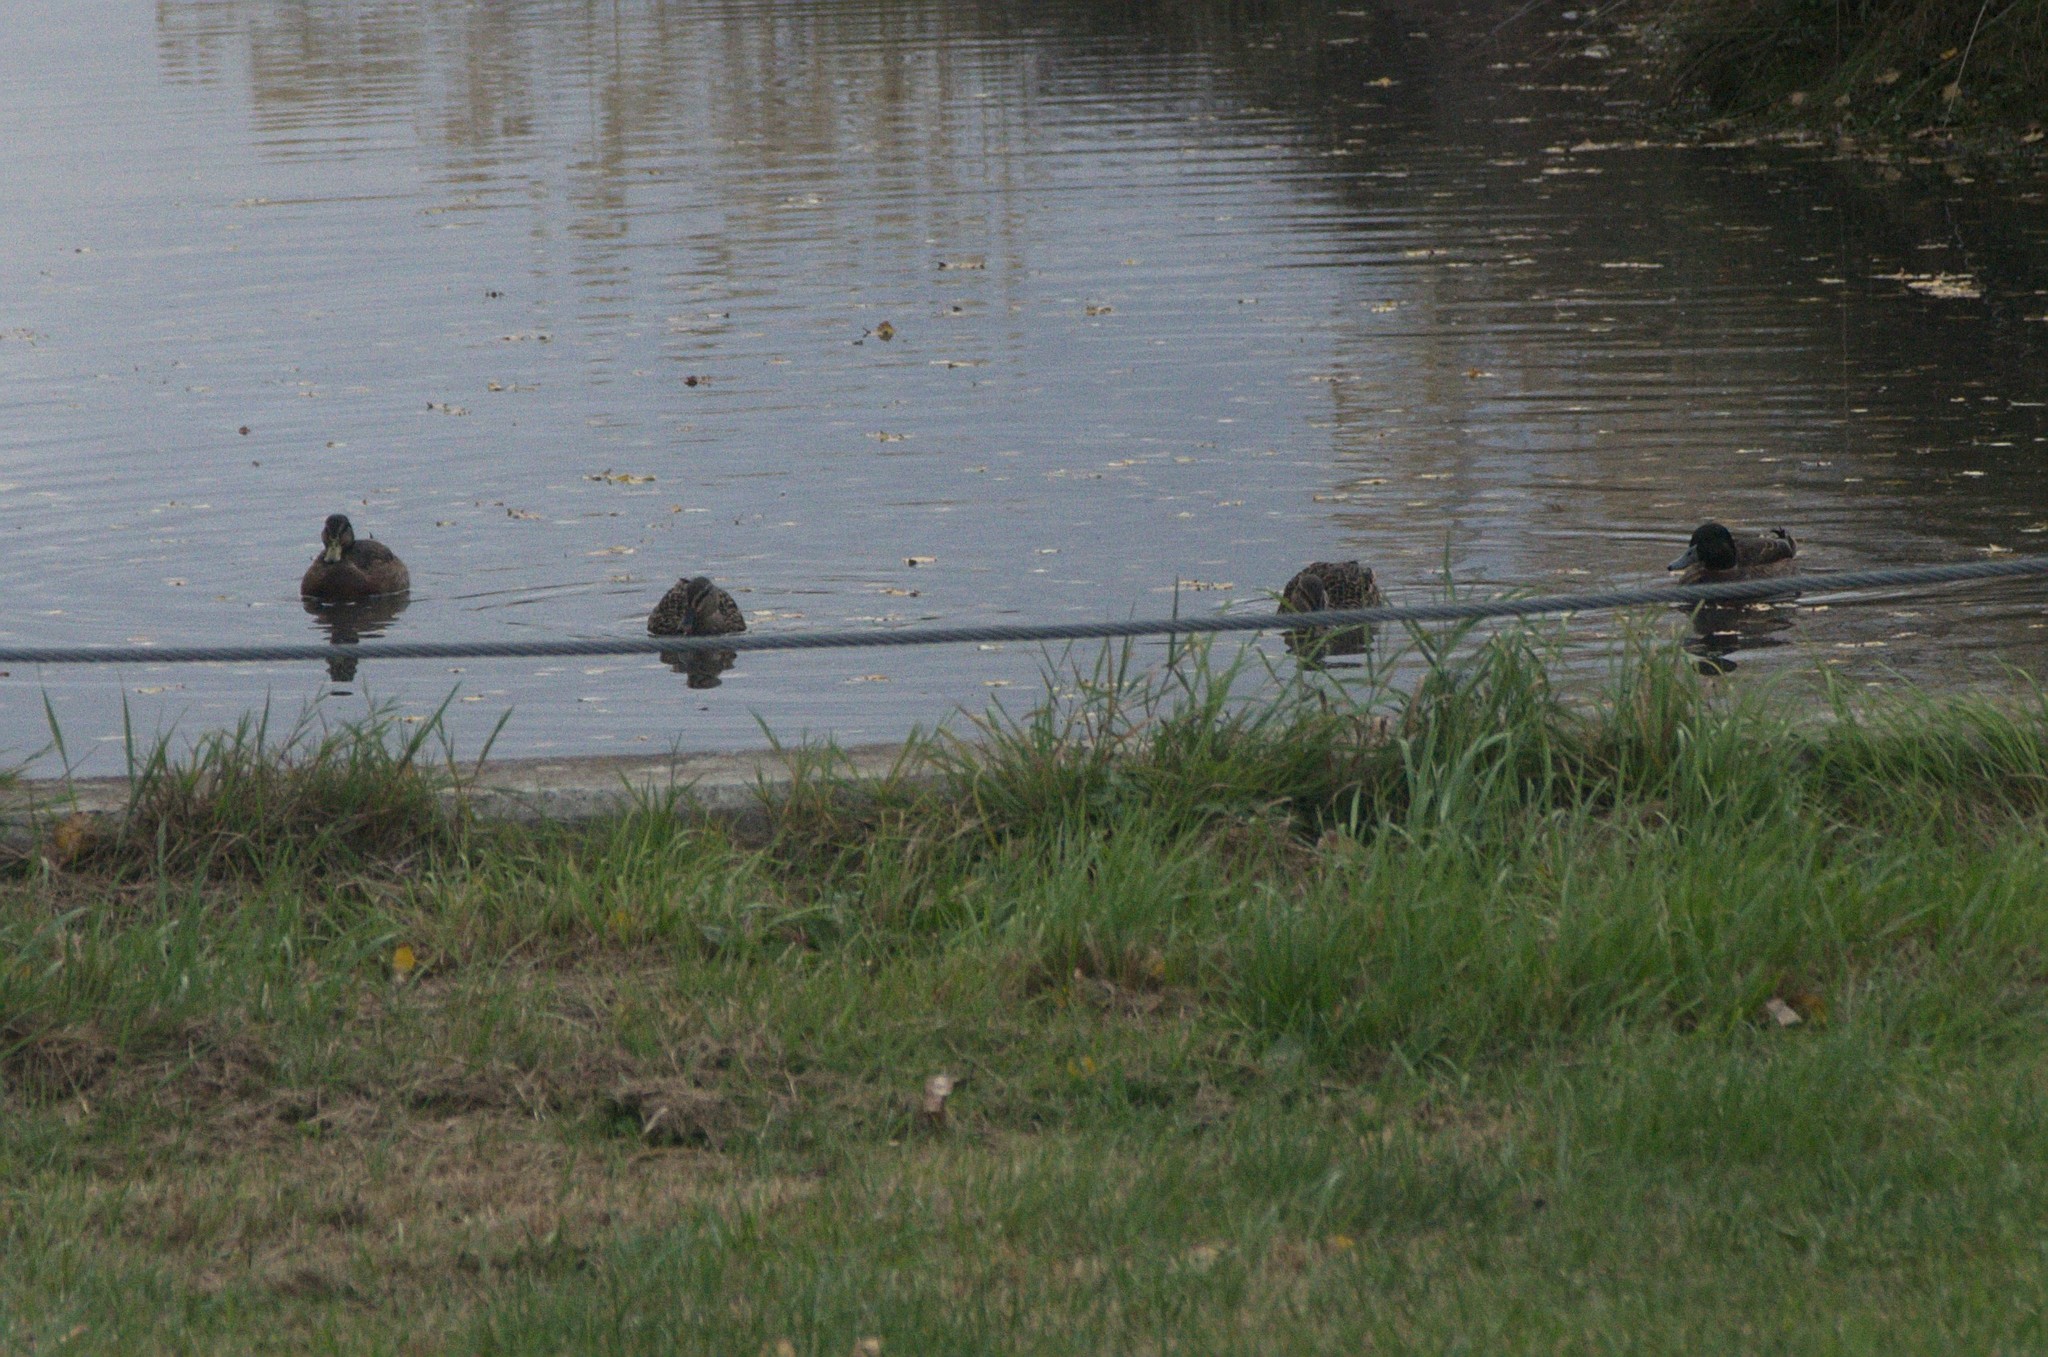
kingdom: Animalia
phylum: Chordata
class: Aves
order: Anseriformes
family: Anatidae
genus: Anas
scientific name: Anas platyrhynchos
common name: Mallard
